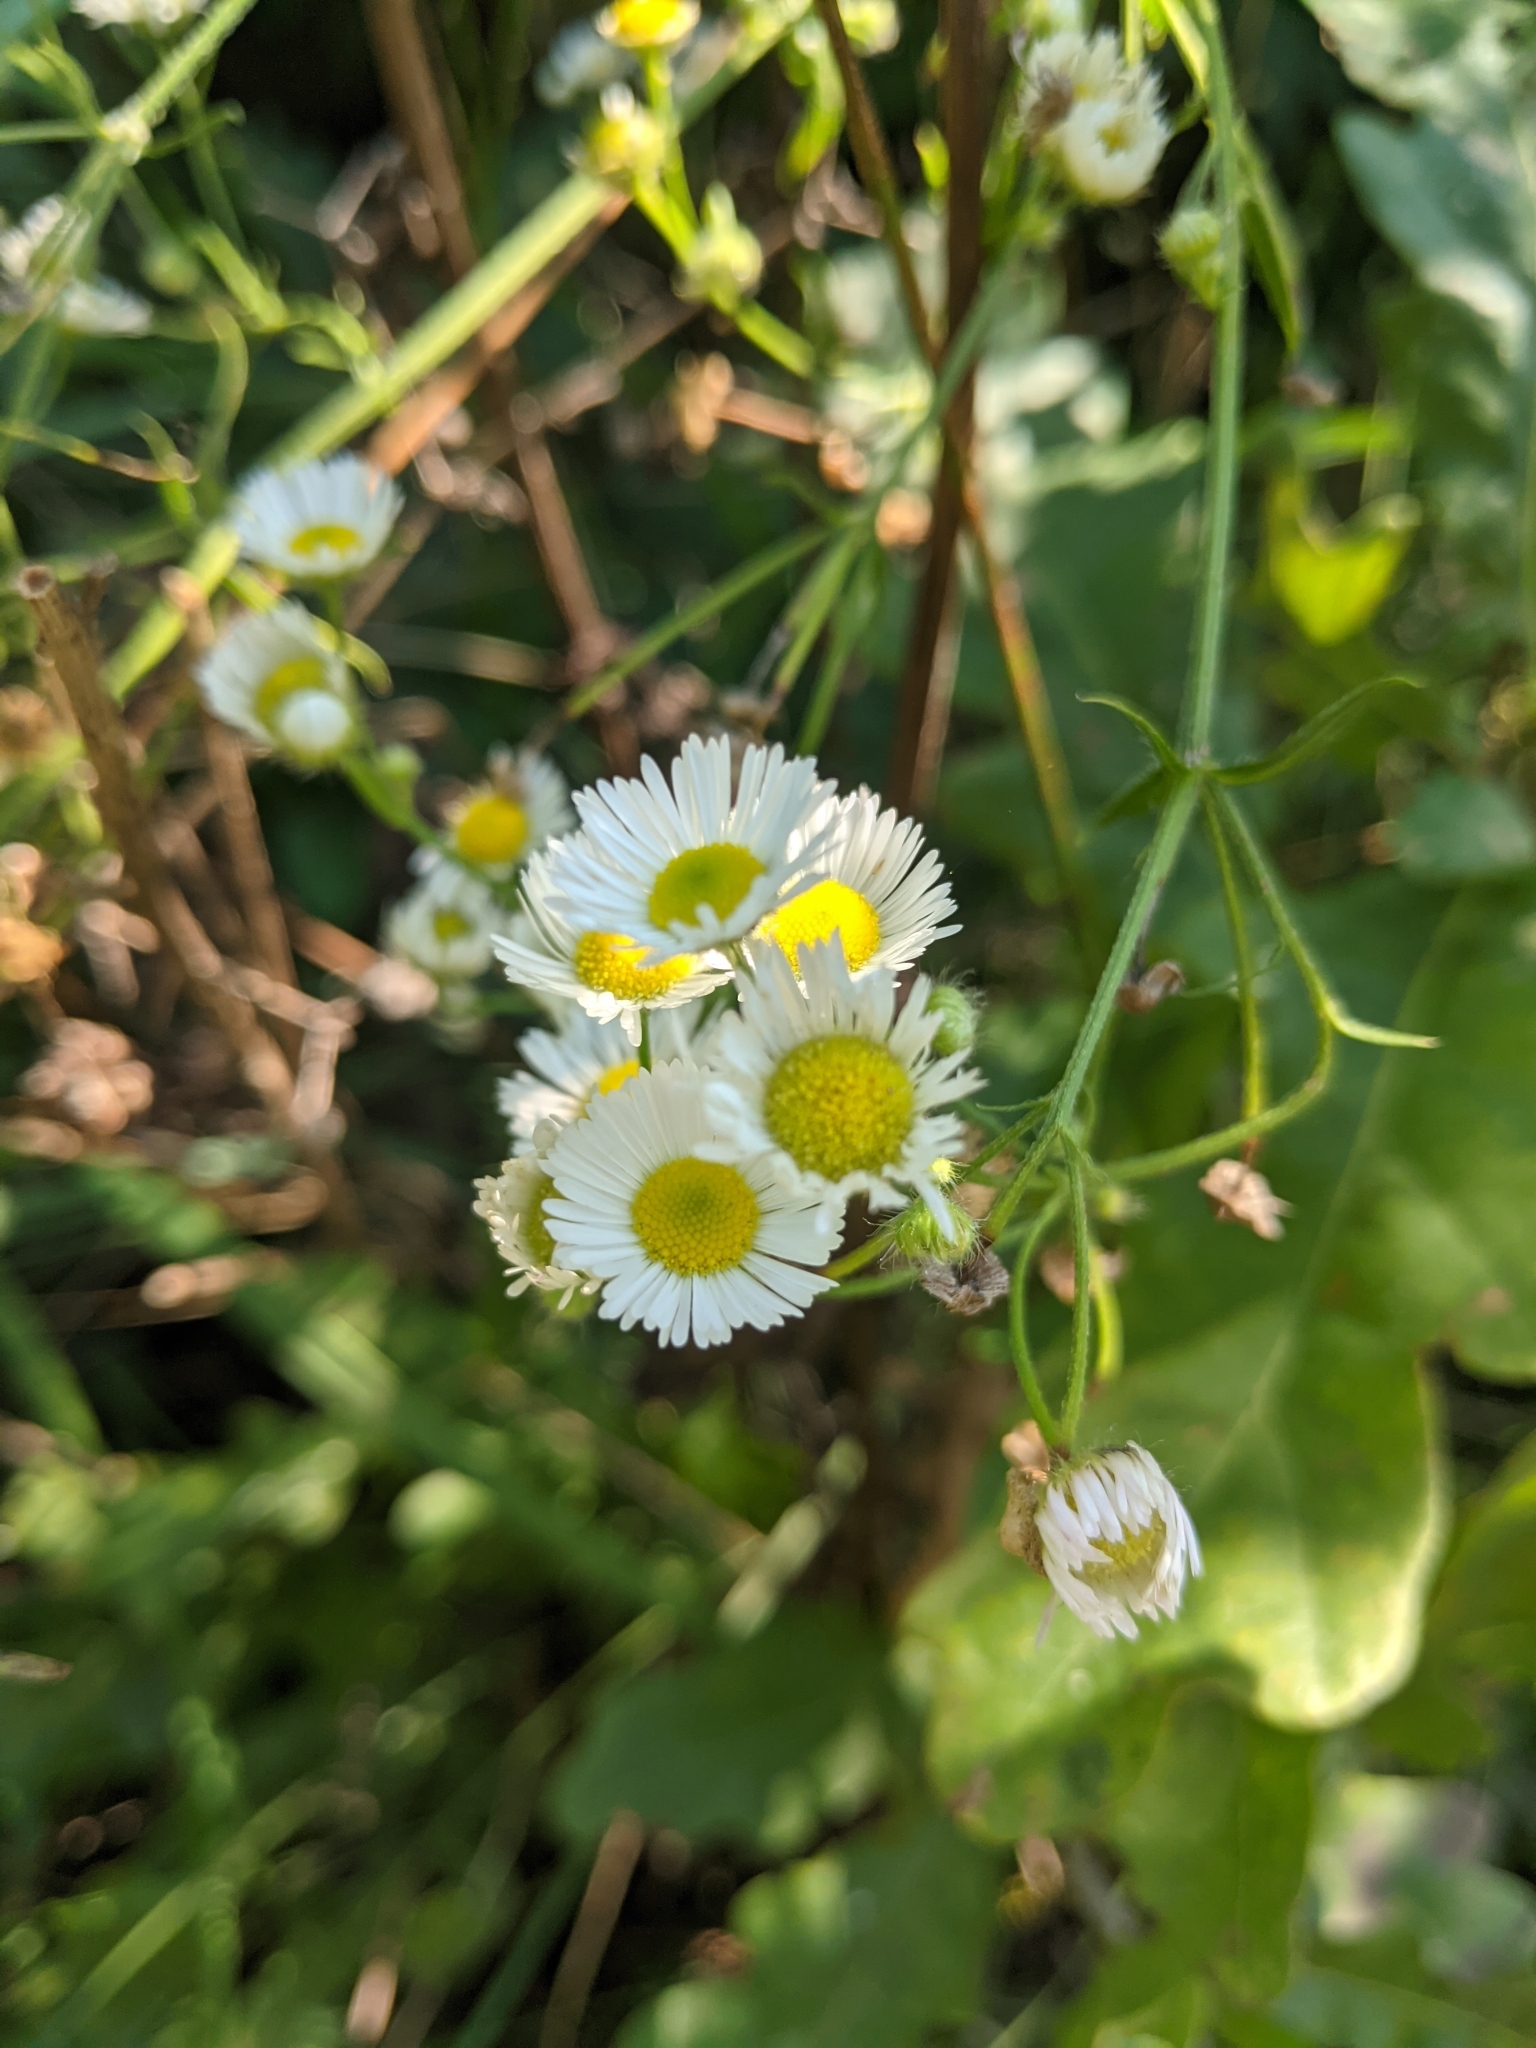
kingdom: Plantae
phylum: Tracheophyta
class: Magnoliopsida
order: Asterales
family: Asteraceae
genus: Erigeron
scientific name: Erigeron annuus
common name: Tall fleabane
